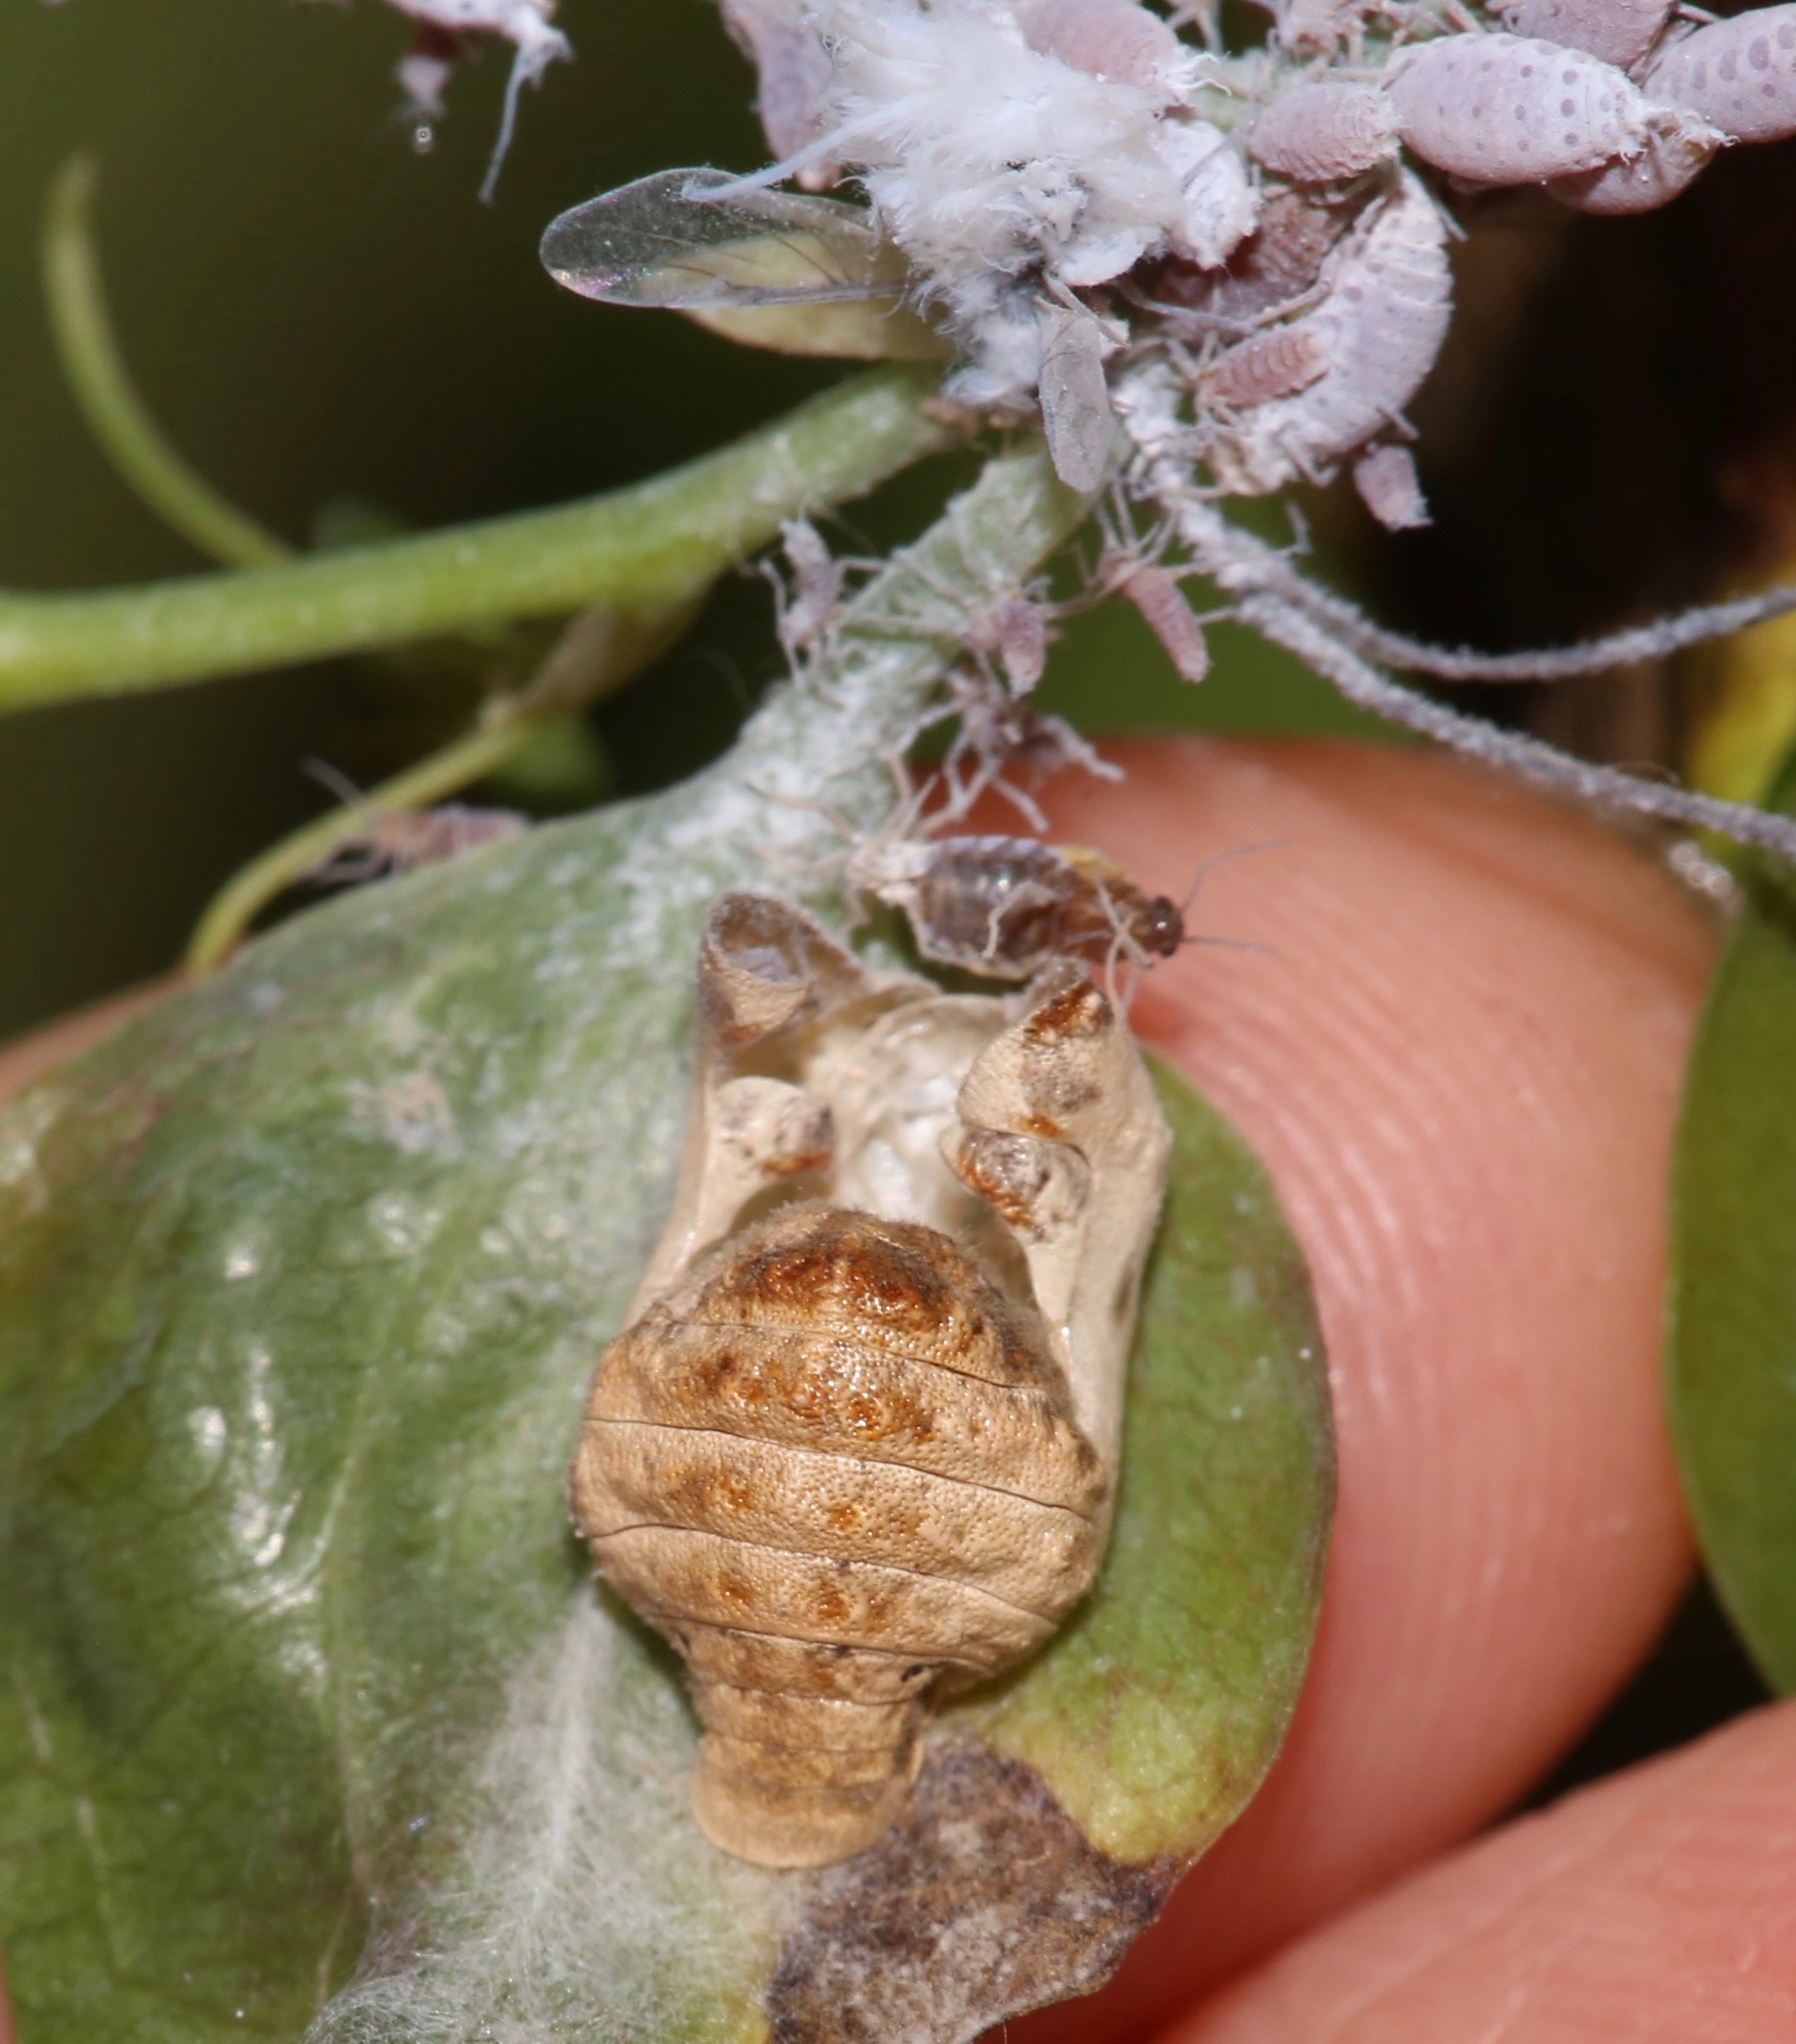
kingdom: Animalia
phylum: Arthropoda
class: Insecta
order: Lepidoptera
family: Lycaenidae
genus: Feniseca
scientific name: Feniseca tarquinius
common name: Harvester
